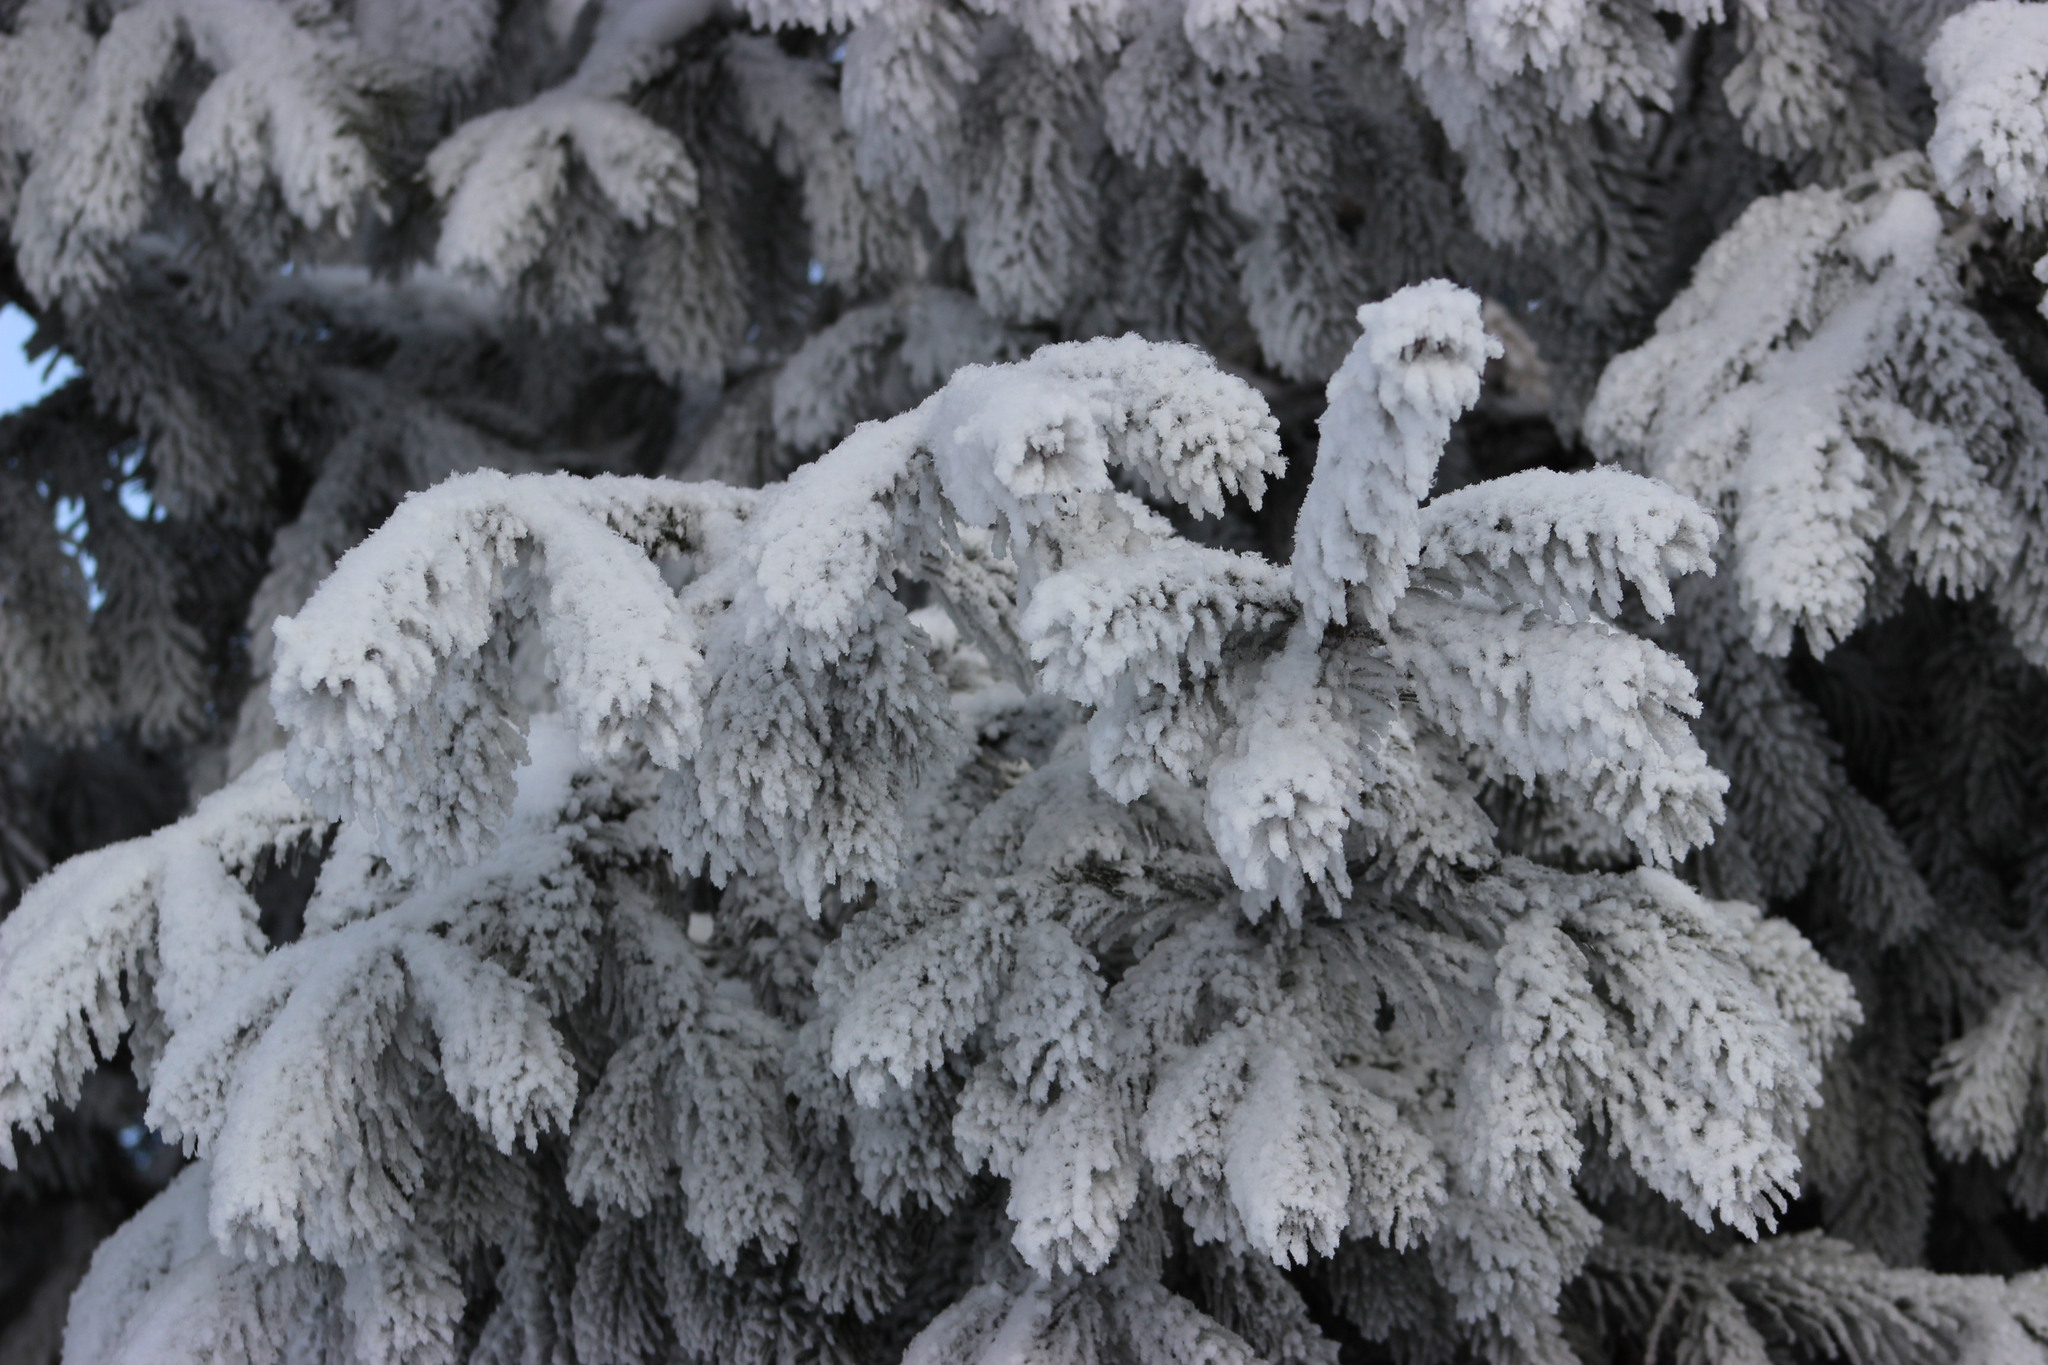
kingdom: Plantae
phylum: Tracheophyta
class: Pinopsida
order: Pinales
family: Pinaceae
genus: Picea
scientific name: Picea obovata
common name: Siberian spruce
